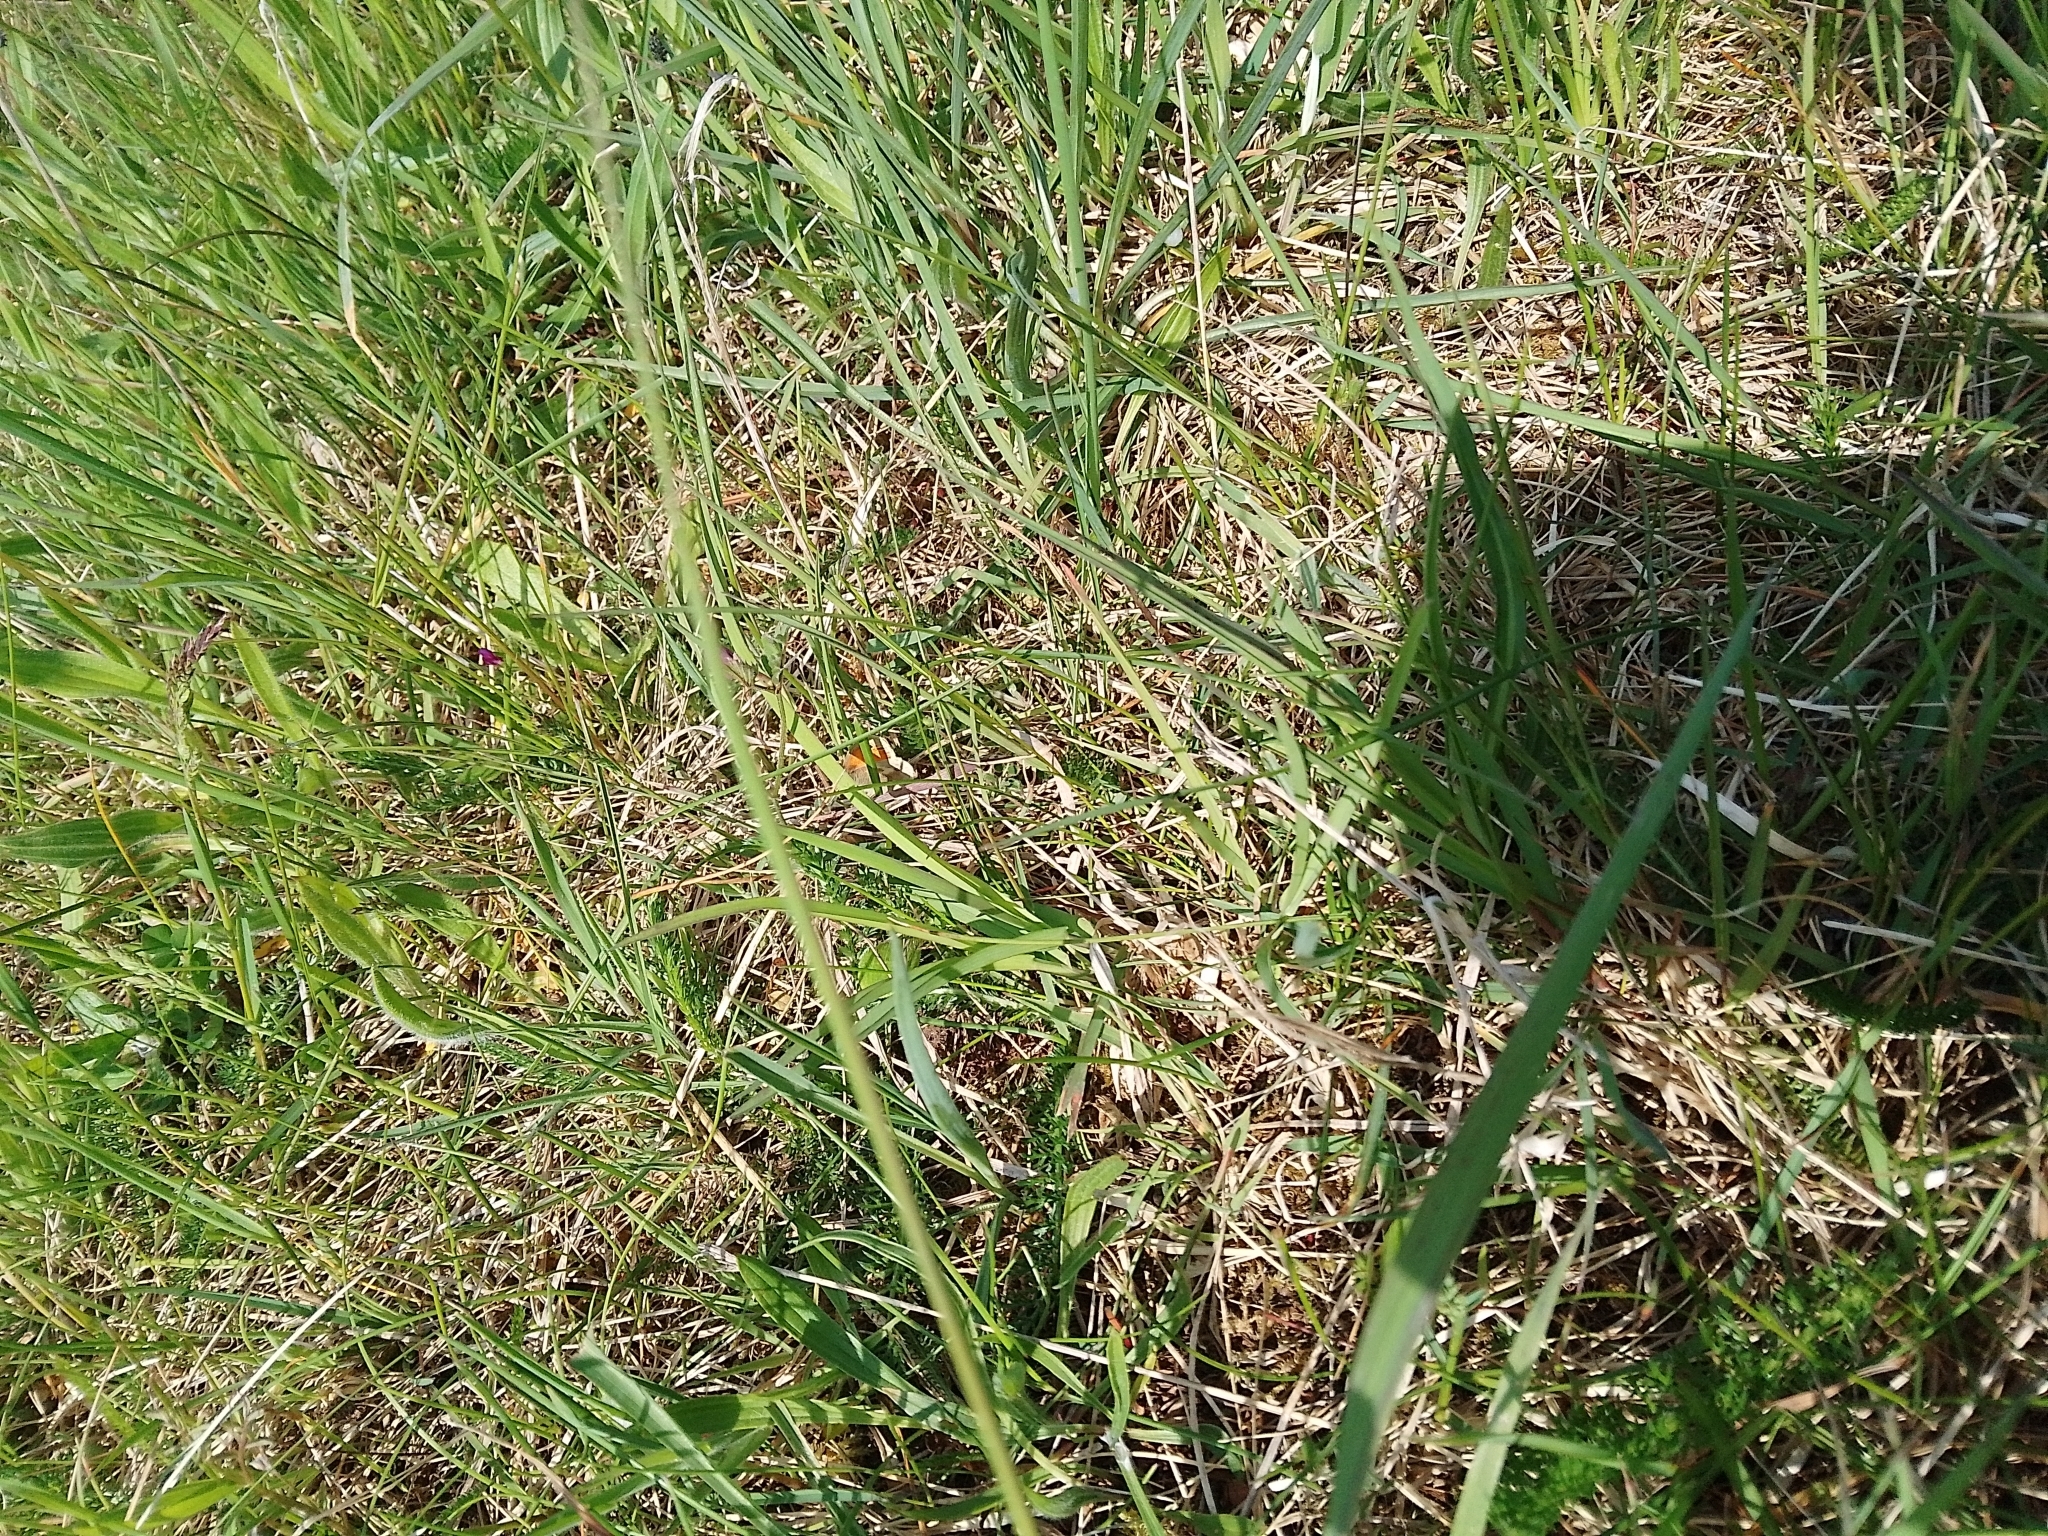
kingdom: Animalia
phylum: Arthropoda
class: Insecta
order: Lepidoptera
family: Nymphalidae
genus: Coenonympha
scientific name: Coenonympha pamphilus
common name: Small heath
